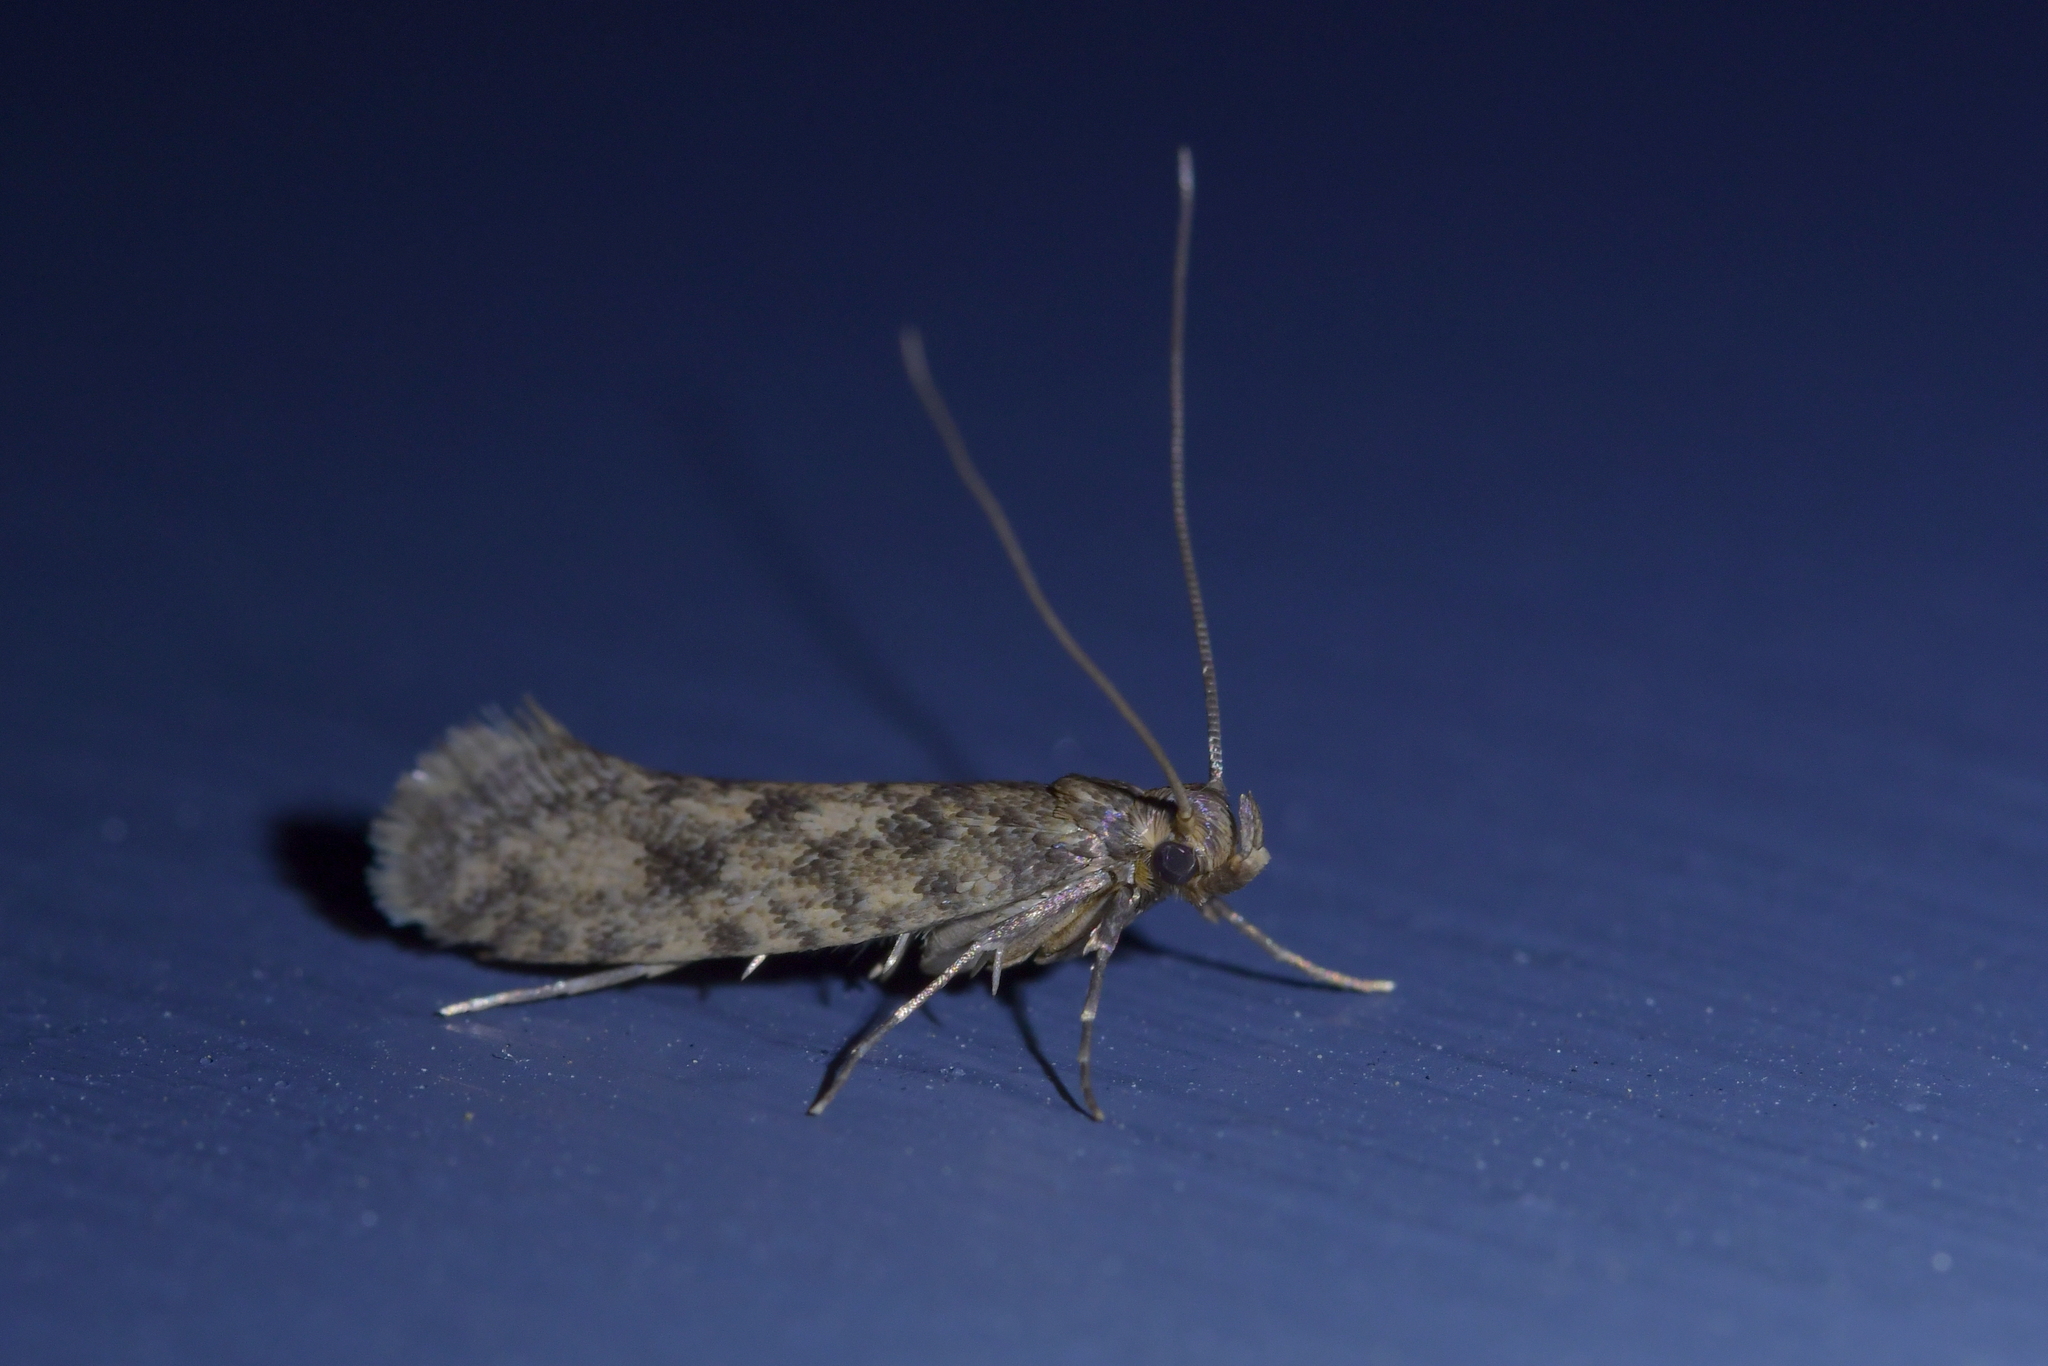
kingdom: Animalia
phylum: Arthropoda
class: Insecta
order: Lepidoptera
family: Tineidae
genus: Lindera
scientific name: Lindera tessellatella
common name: Moth
